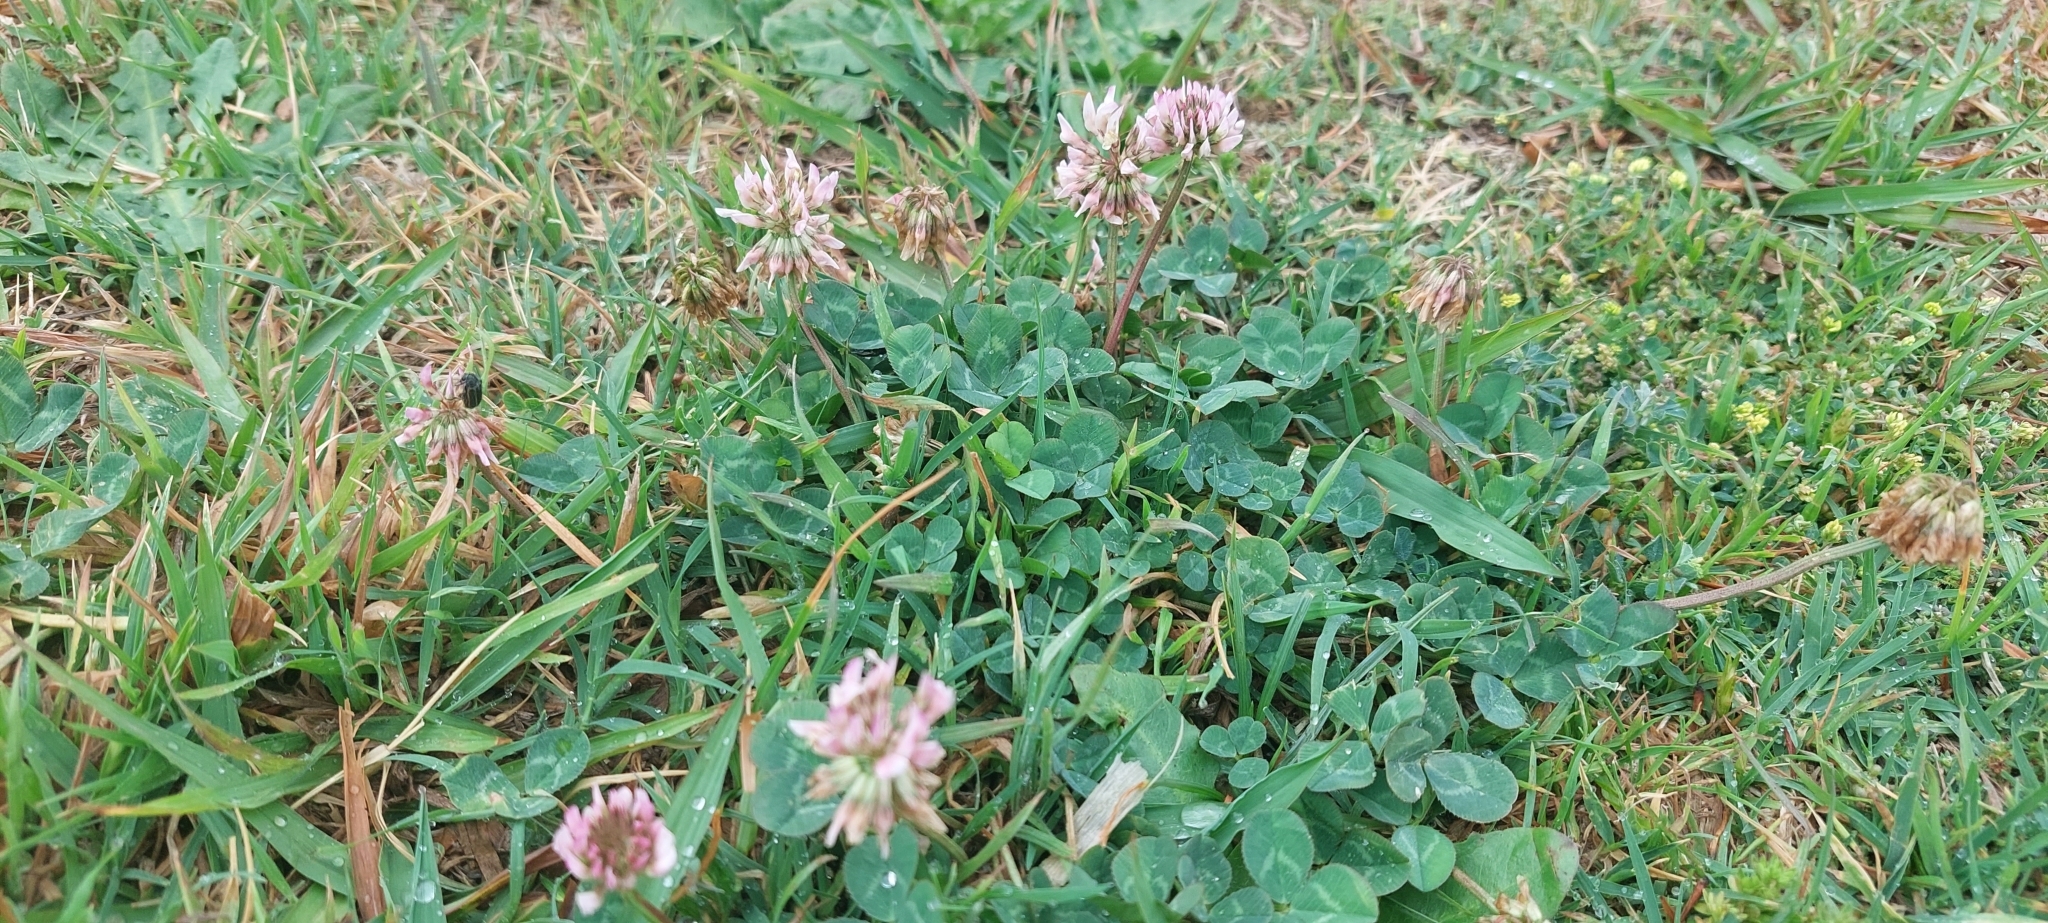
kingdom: Plantae
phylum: Tracheophyta
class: Magnoliopsida
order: Fabales
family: Fabaceae
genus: Trifolium
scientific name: Trifolium repens
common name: White clover
